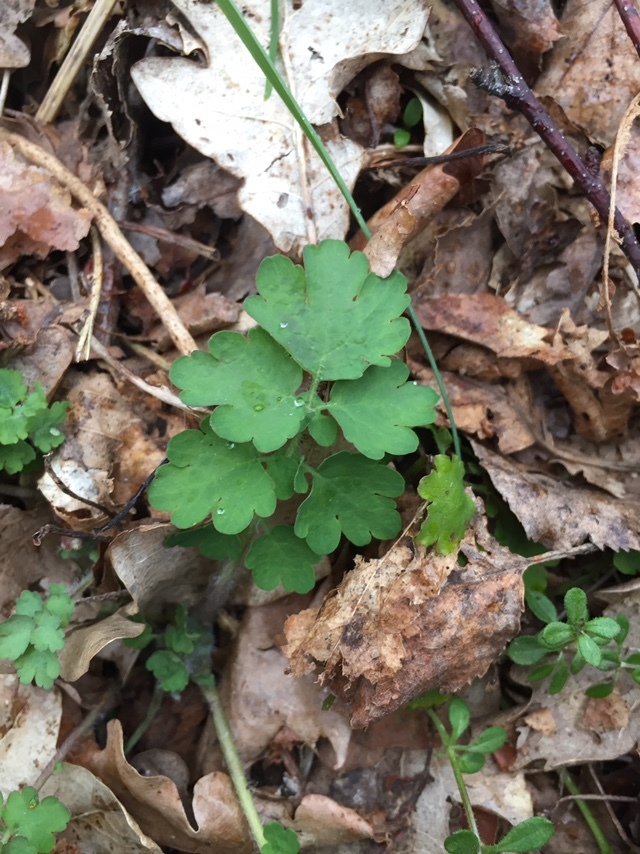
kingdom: Plantae
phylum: Tracheophyta
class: Magnoliopsida
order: Ranunculales
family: Papaveraceae
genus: Chelidonium
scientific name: Chelidonium majus
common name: Greater celandine
